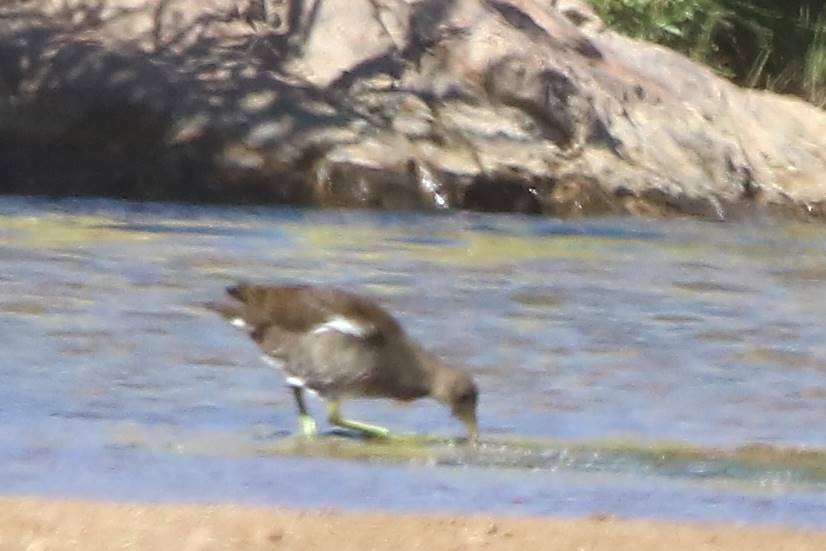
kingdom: Animalia
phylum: Chordata
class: Aves
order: Gruiformes
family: Rallidae
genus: Gallinula
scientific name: Gallinula chloropus
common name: Common moorhen
